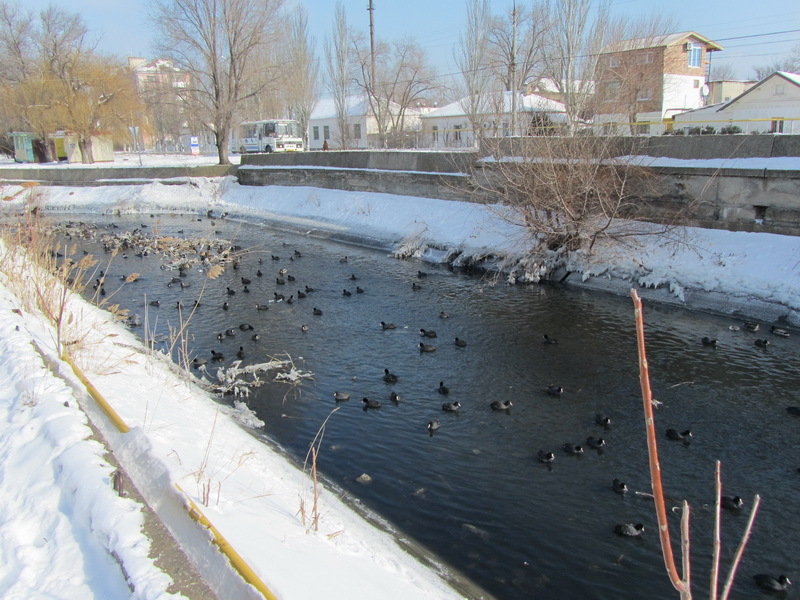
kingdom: Animalia
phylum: Chordata
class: Aves
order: Gruiformes
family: Rallidae
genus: Fulica
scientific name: Fulica atra
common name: Eurasian coot
